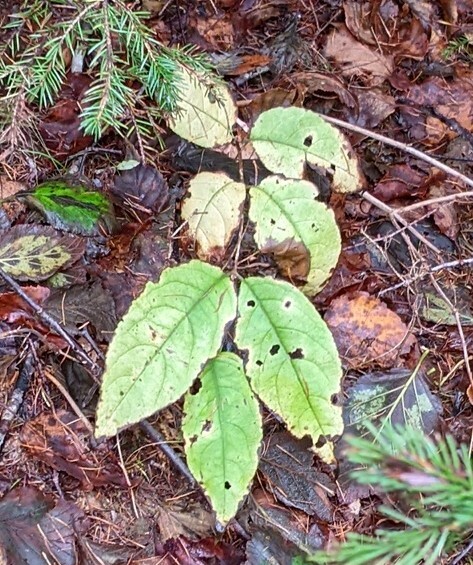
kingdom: Plantae
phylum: Tracheophyta
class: Magnoliopsida
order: Dipsacales
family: Caprifoliaceae
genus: Diervilla
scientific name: Diervilla lonicera
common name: Bush-honeysuckle
